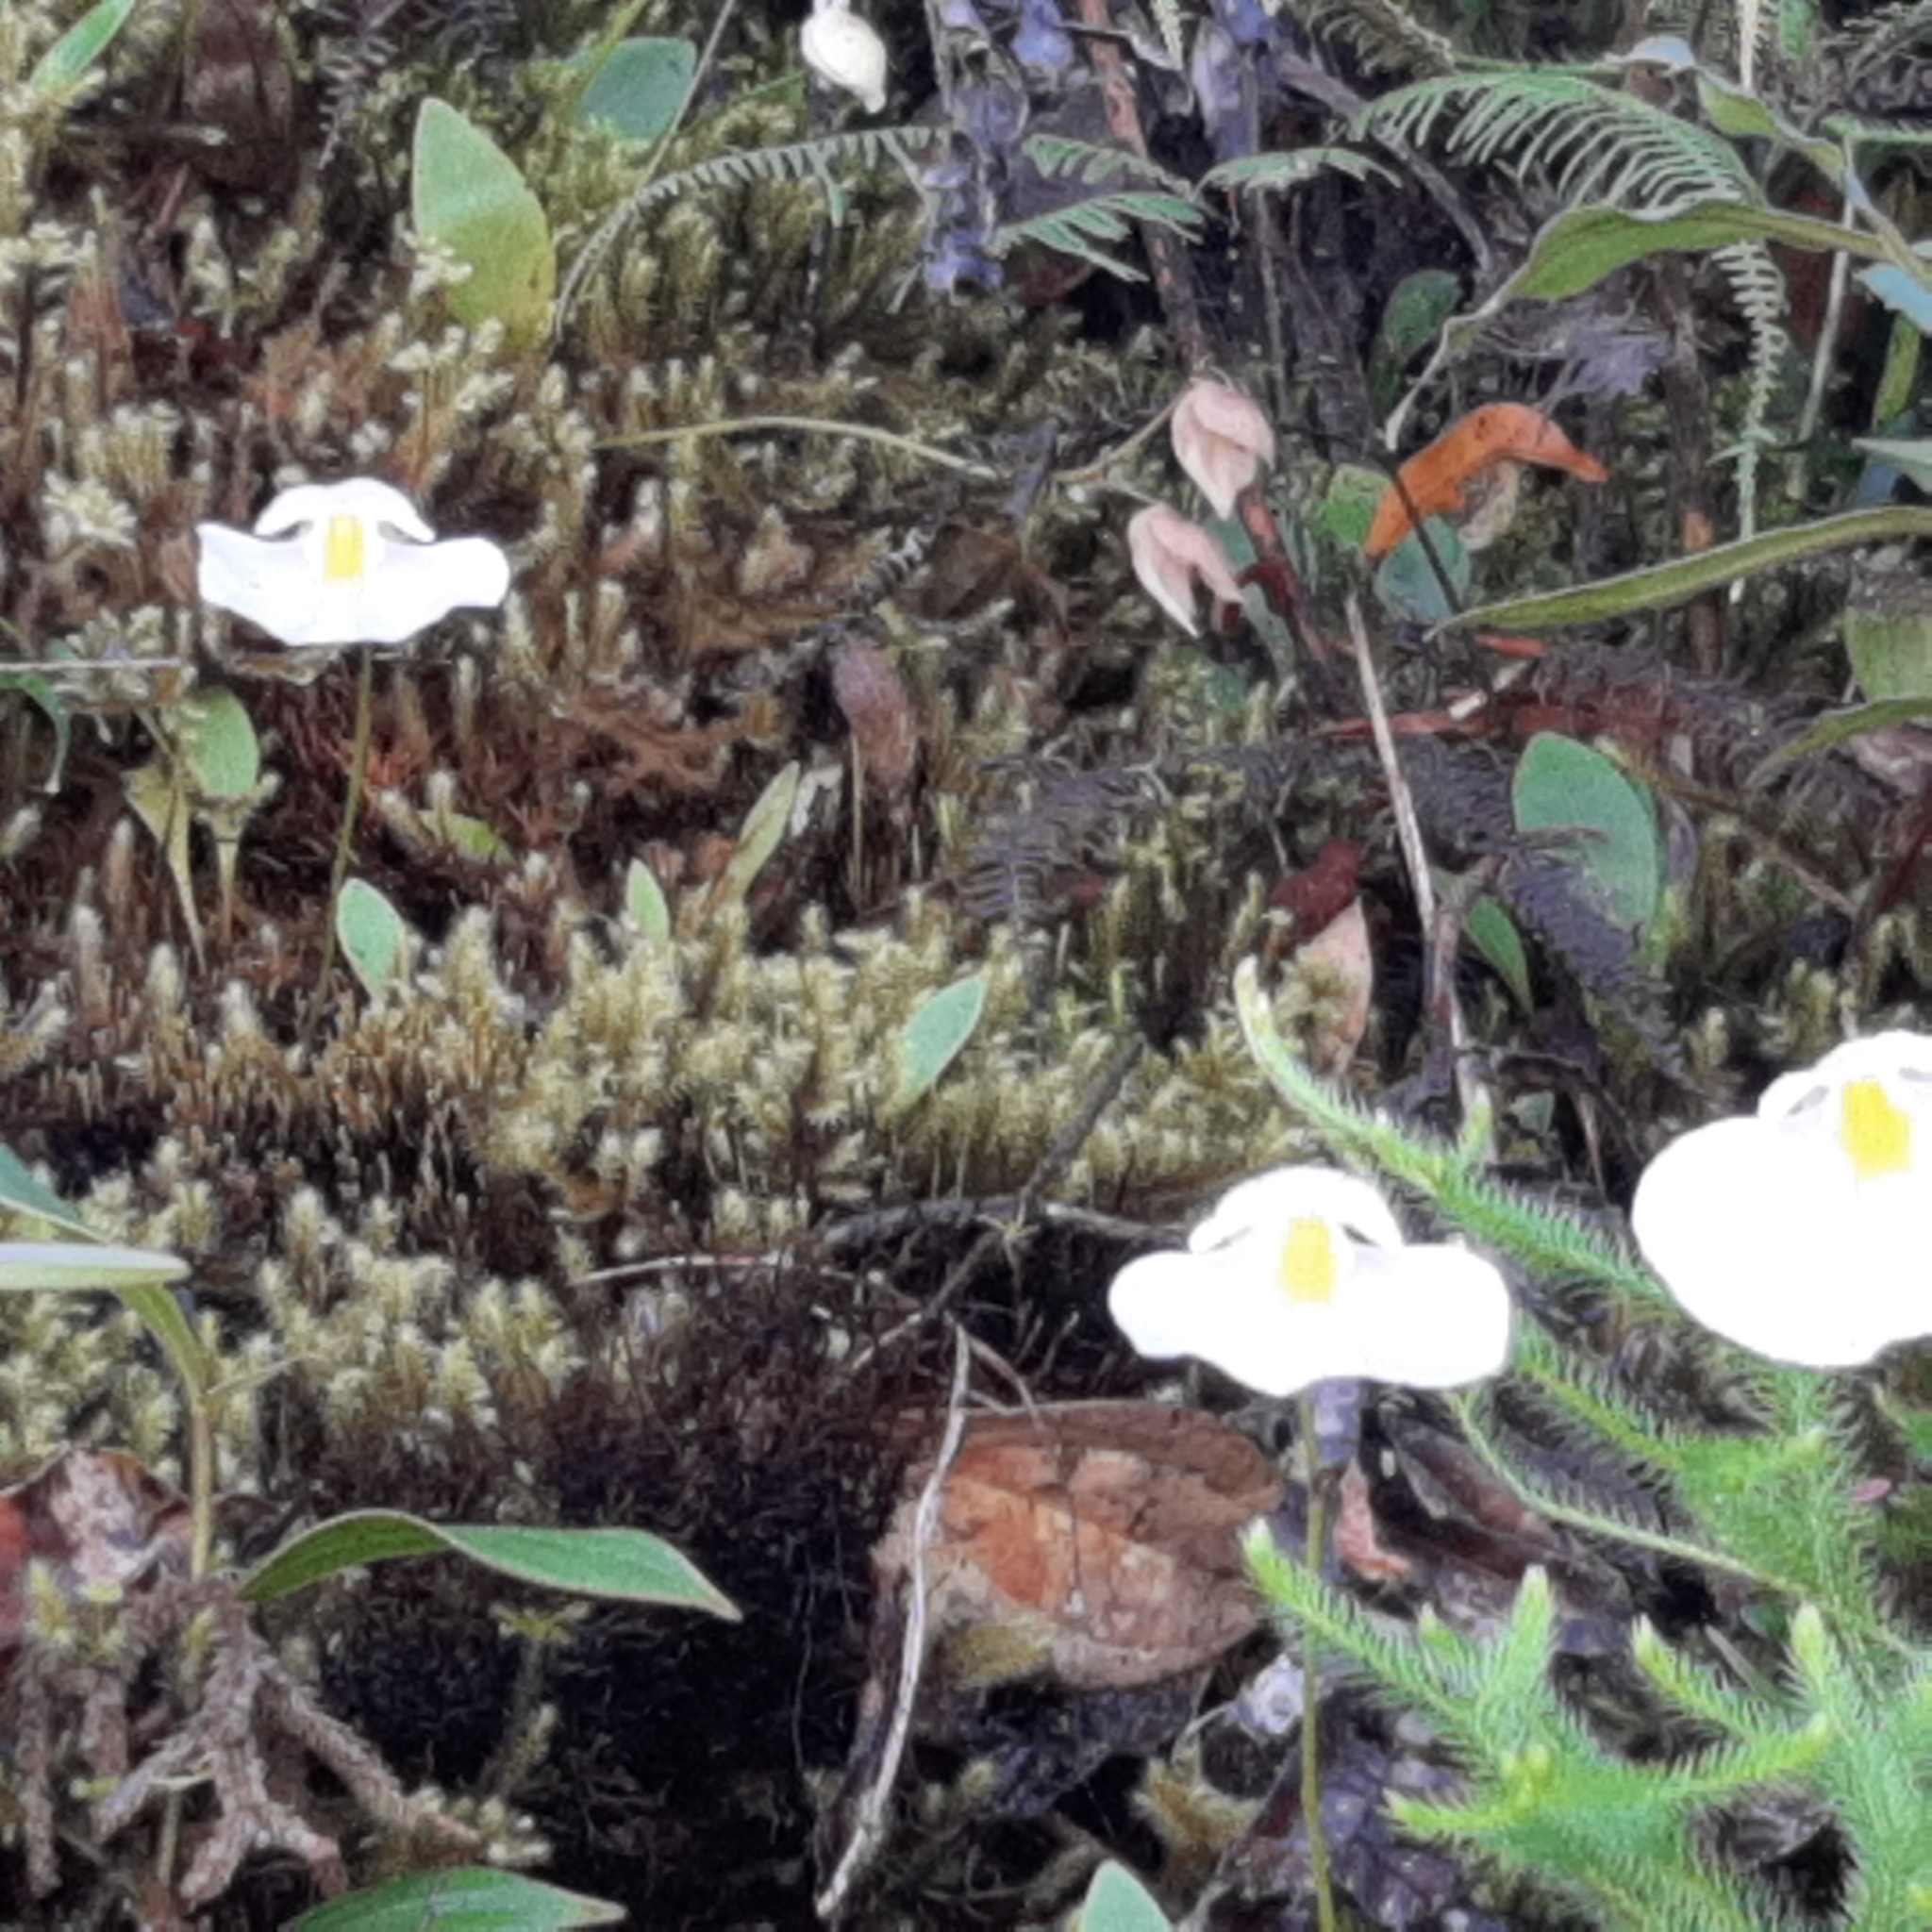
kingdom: Plantae
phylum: Tracheophyta
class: Magnoliopsida
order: Lamiales
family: Lentibulariaceae
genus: Utricularia
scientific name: Utricularia praetermissa
